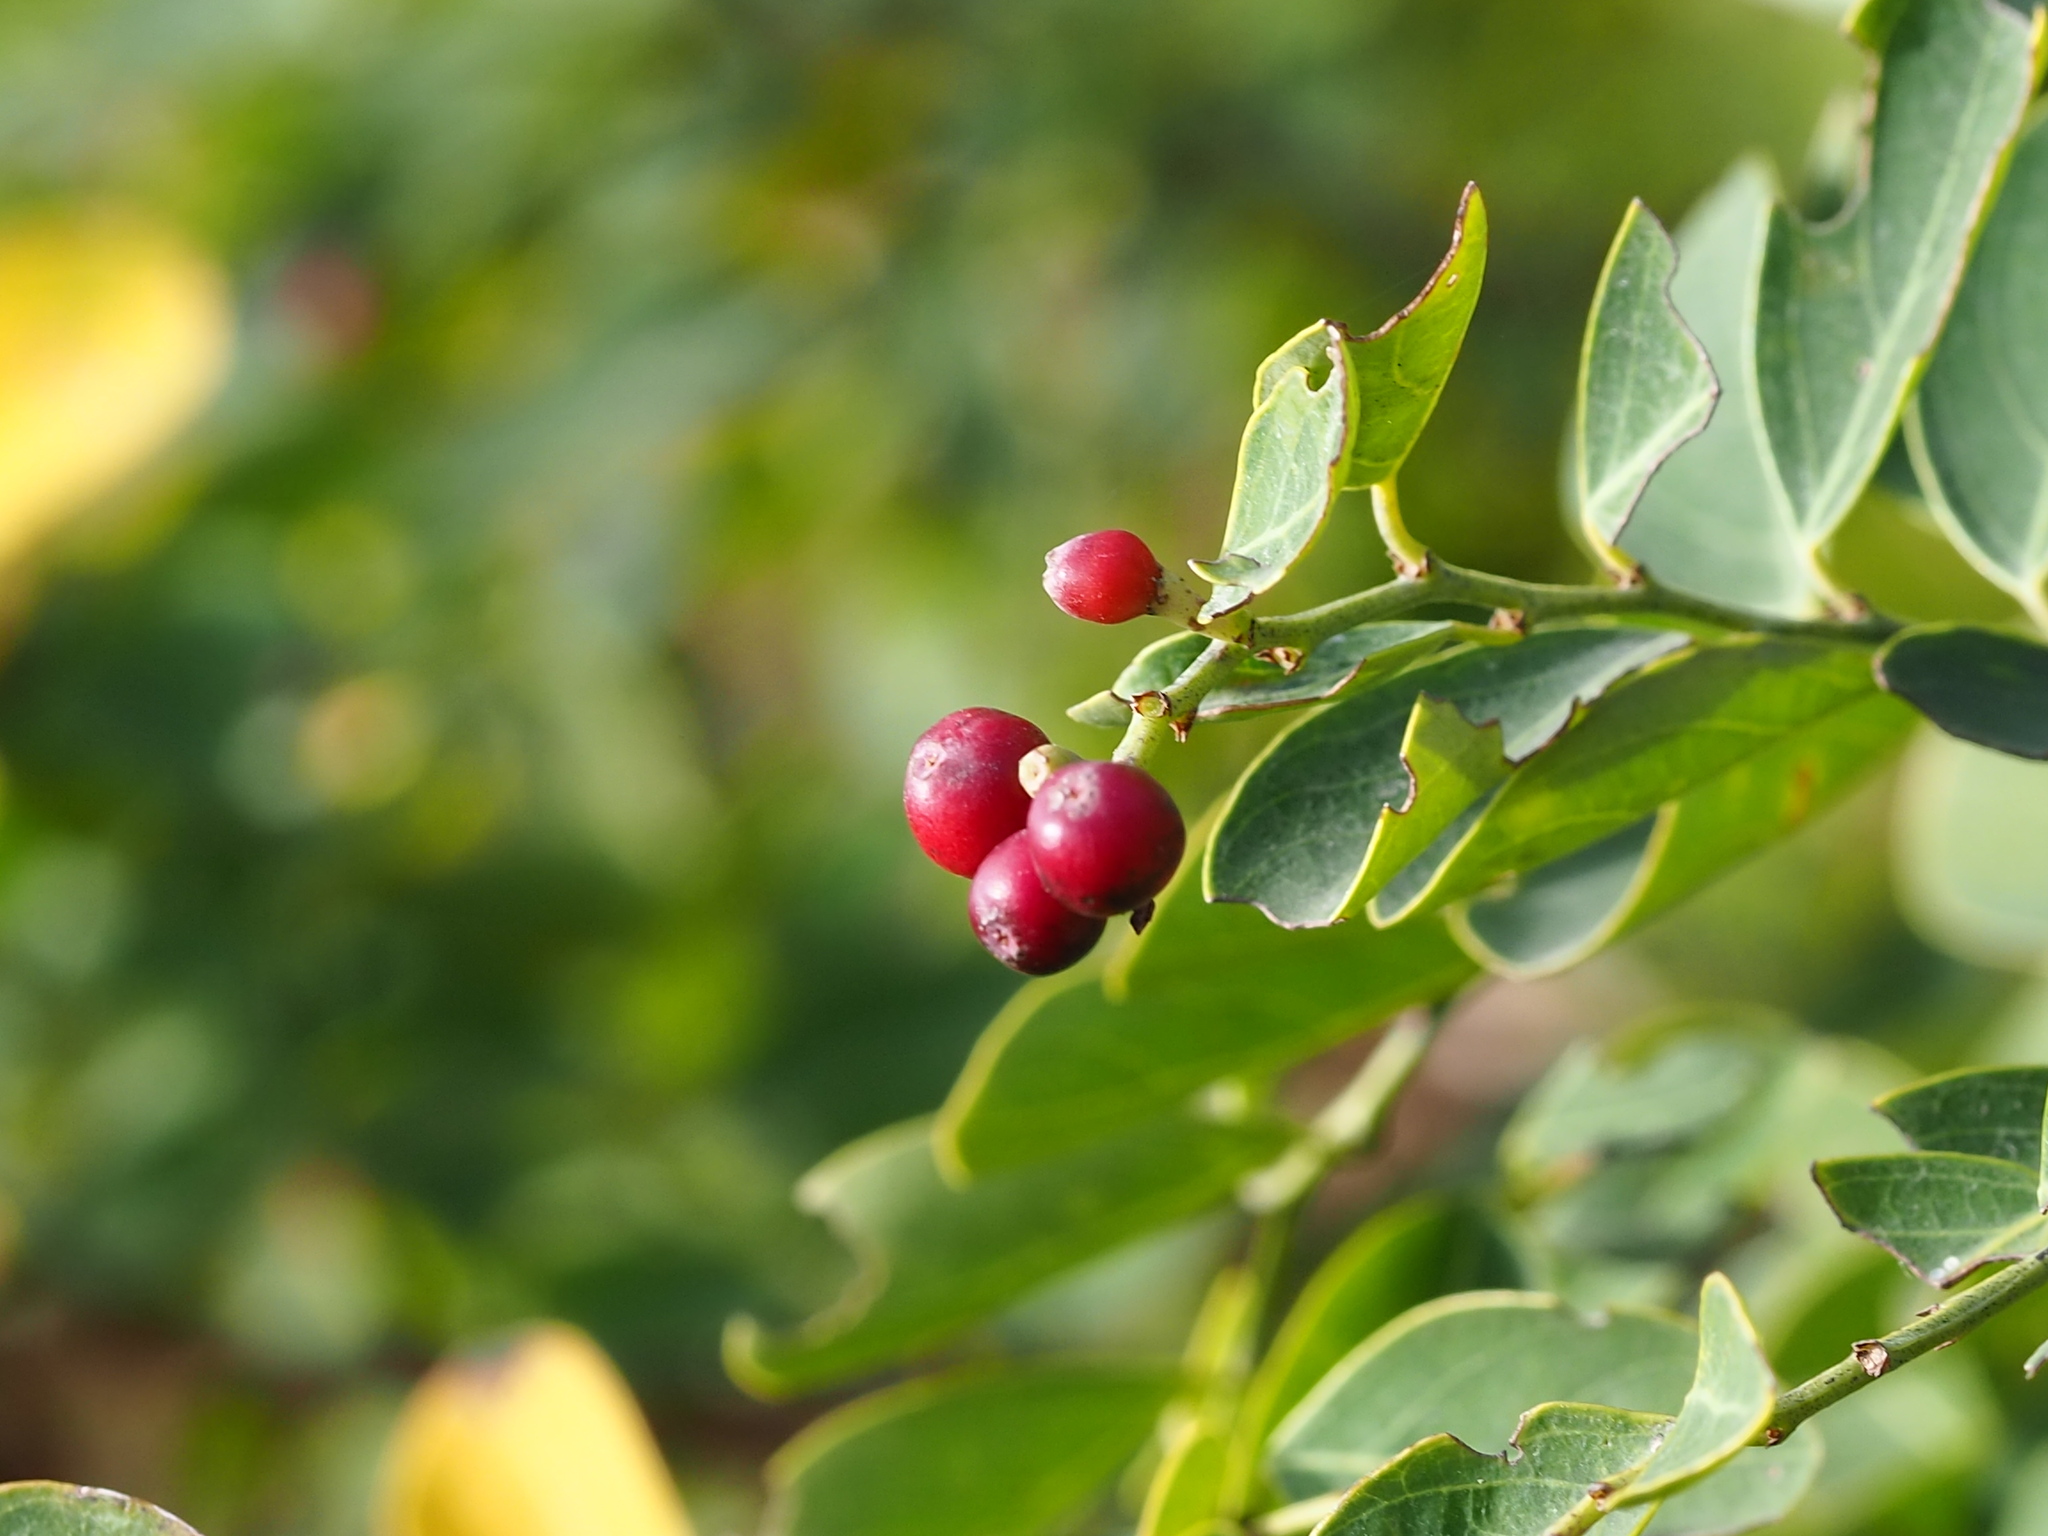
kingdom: Plantae
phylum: Tracheophyta
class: Magnoliopsida
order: Malpighiales
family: Phyllanthaceae
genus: Breynia
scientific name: Breynia vitis-idaea
